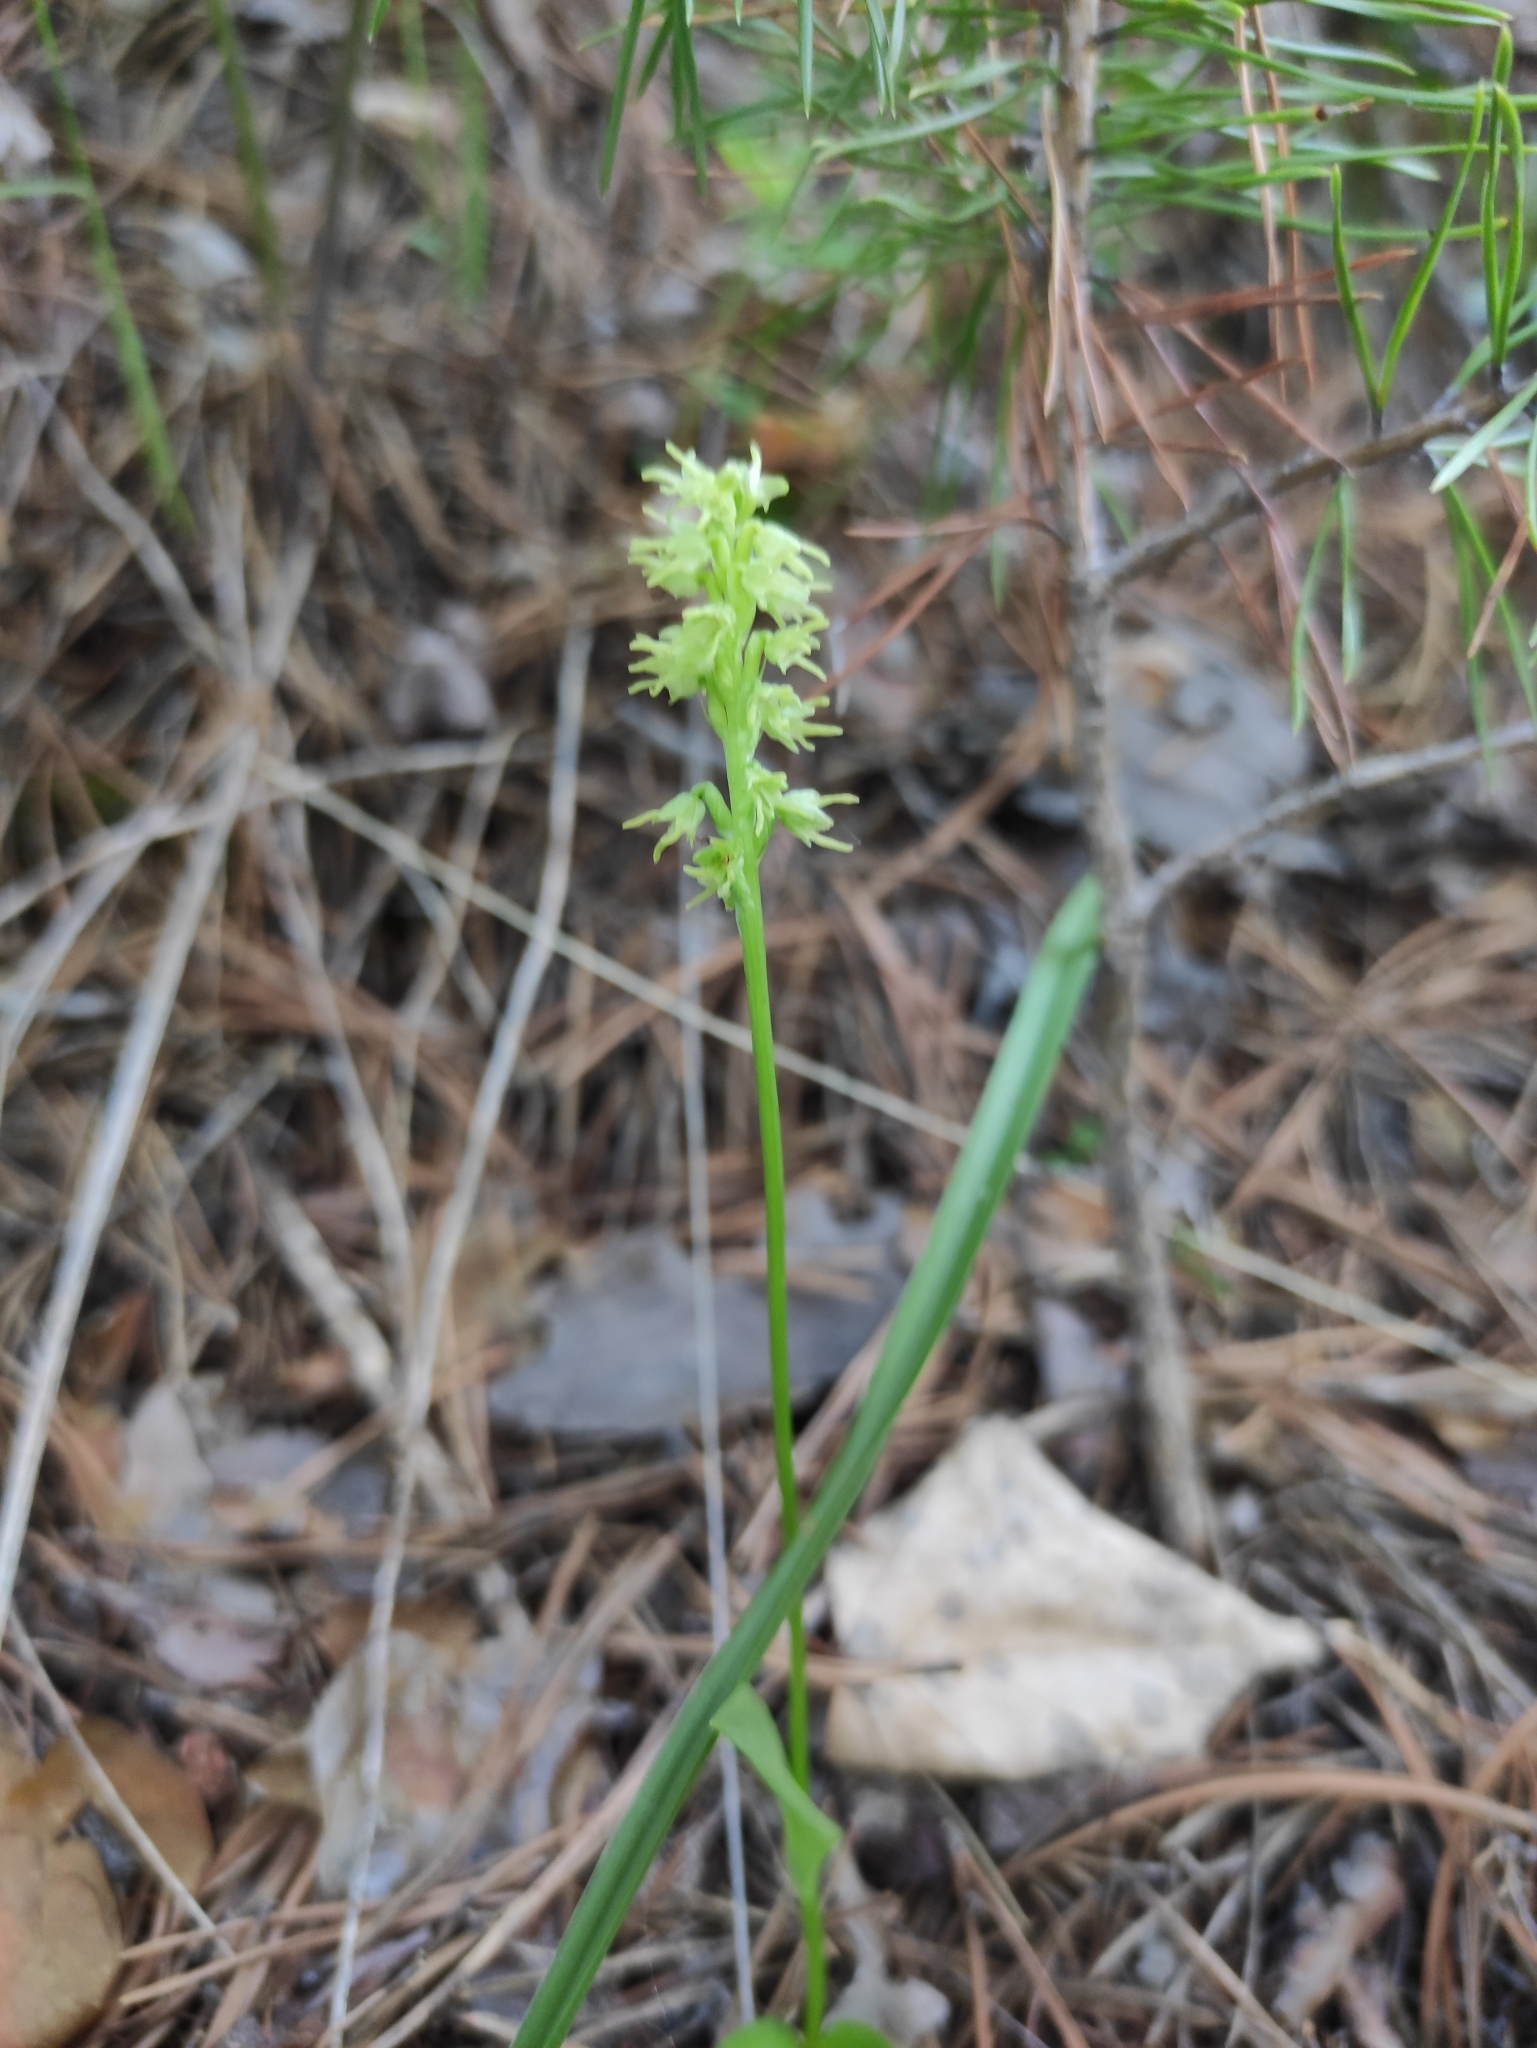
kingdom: Plantae
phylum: Tracheophyta
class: Liliopsida
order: Asparagales
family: Orchidaceae
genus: Herminium
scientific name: Herminium monorchis
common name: Musk orchid
